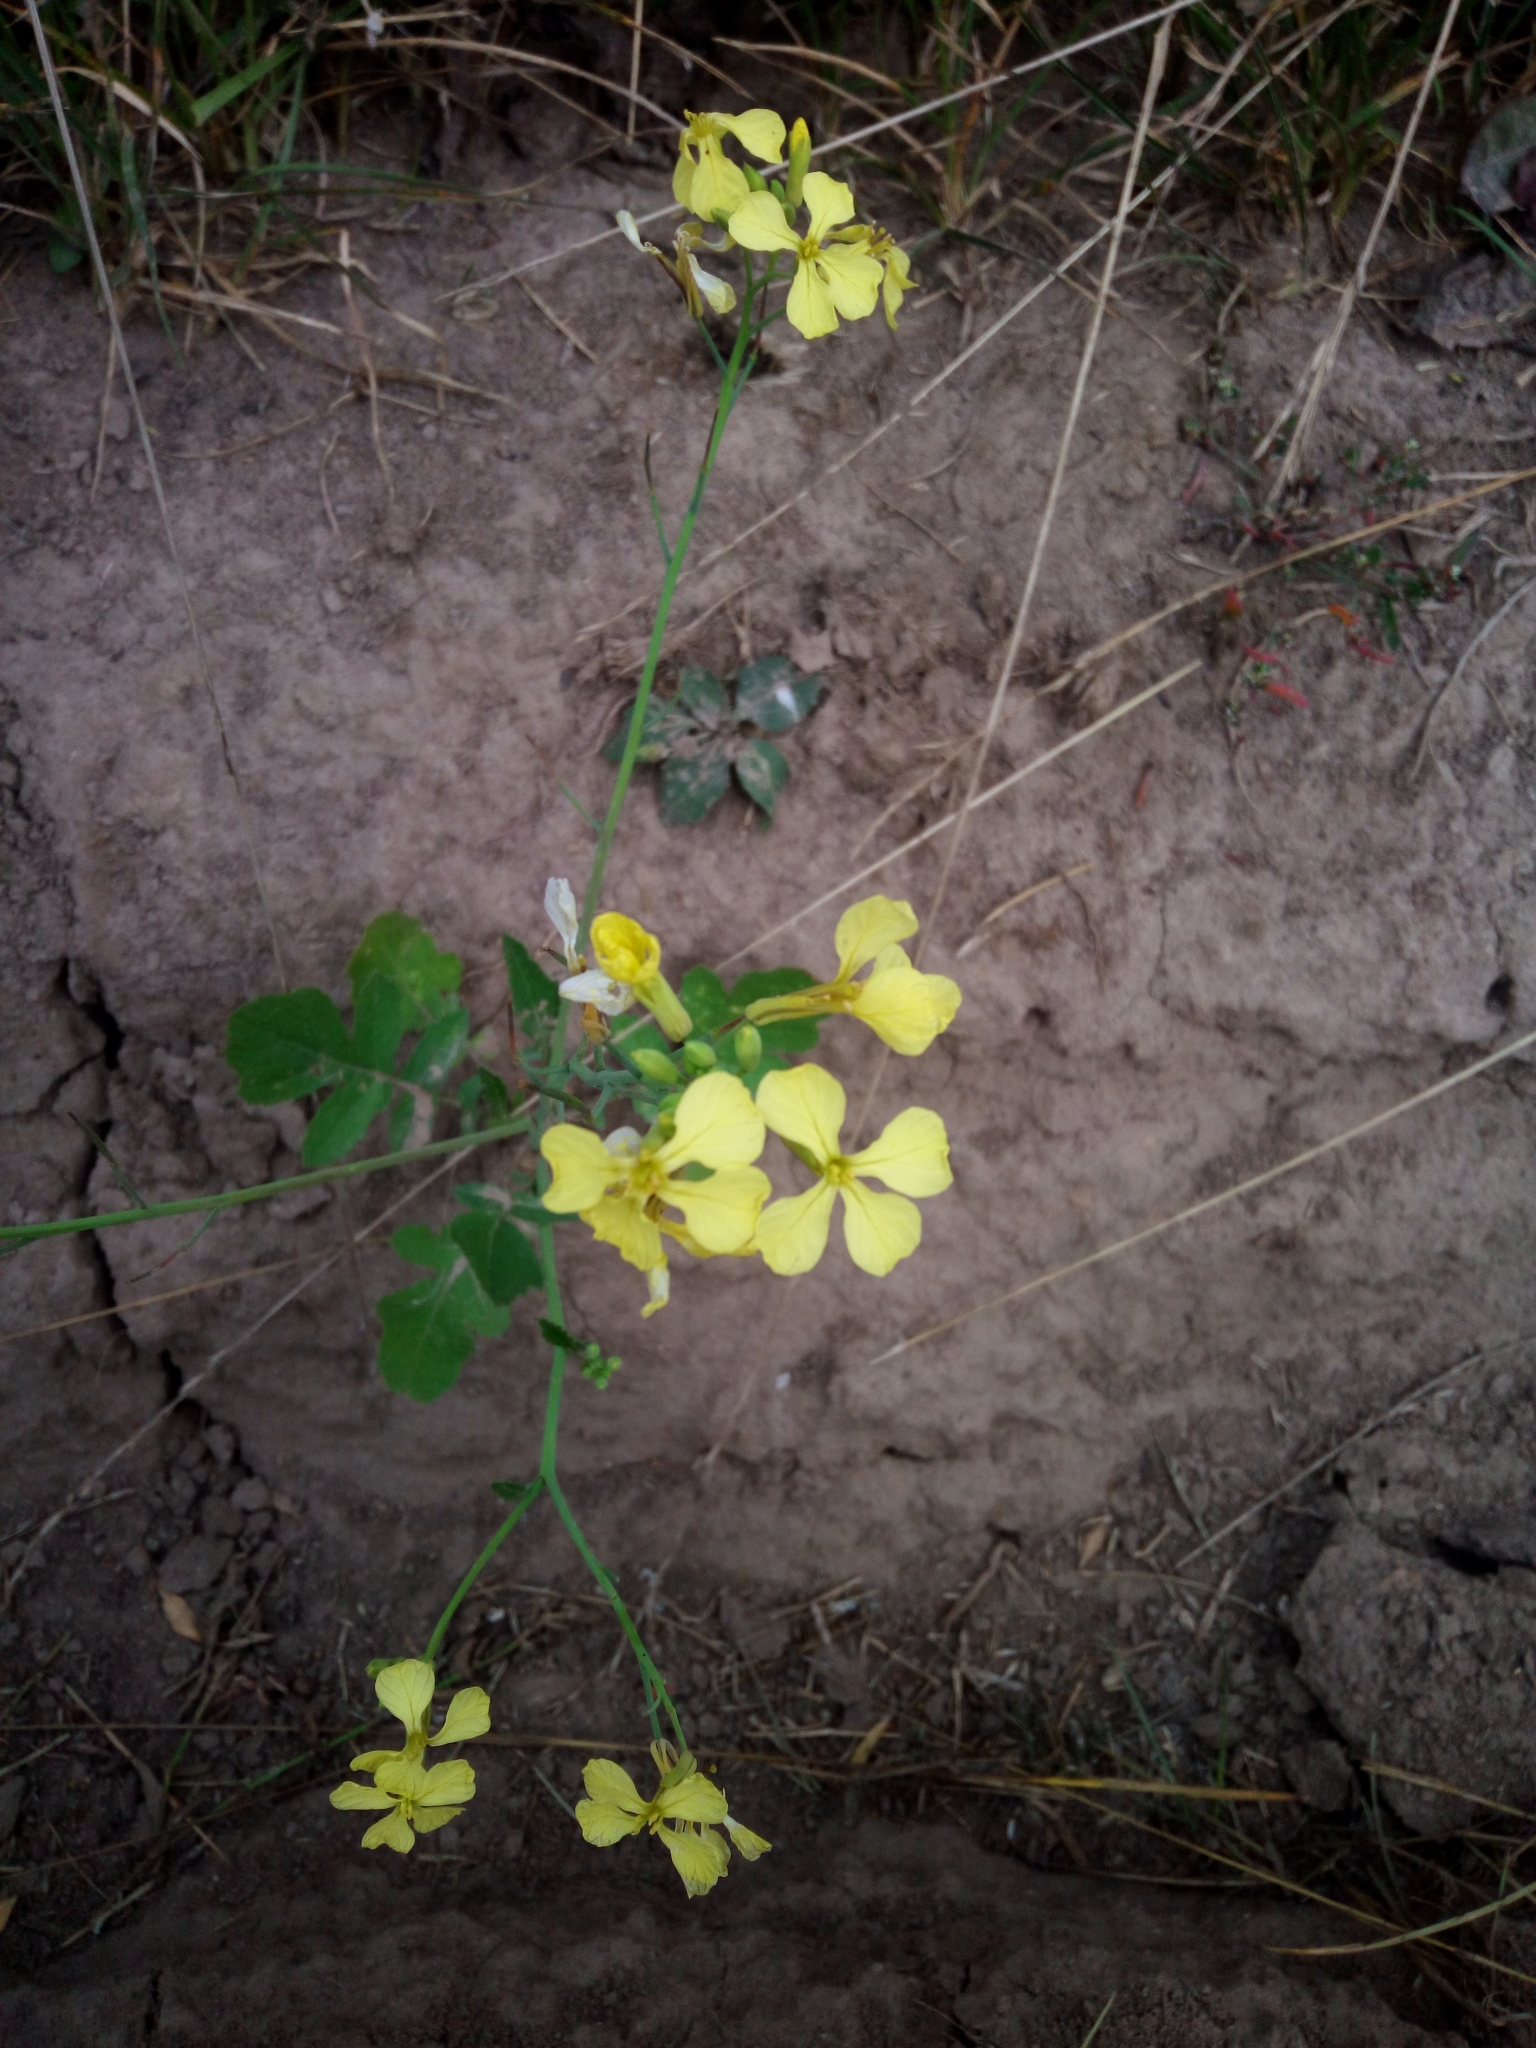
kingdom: Plantae
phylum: Tracheophyta
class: Magnoliopsida
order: Brassicales
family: Brassicaceae
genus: Raphanus
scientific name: Raphanus raphanistrum
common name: Wild radish
